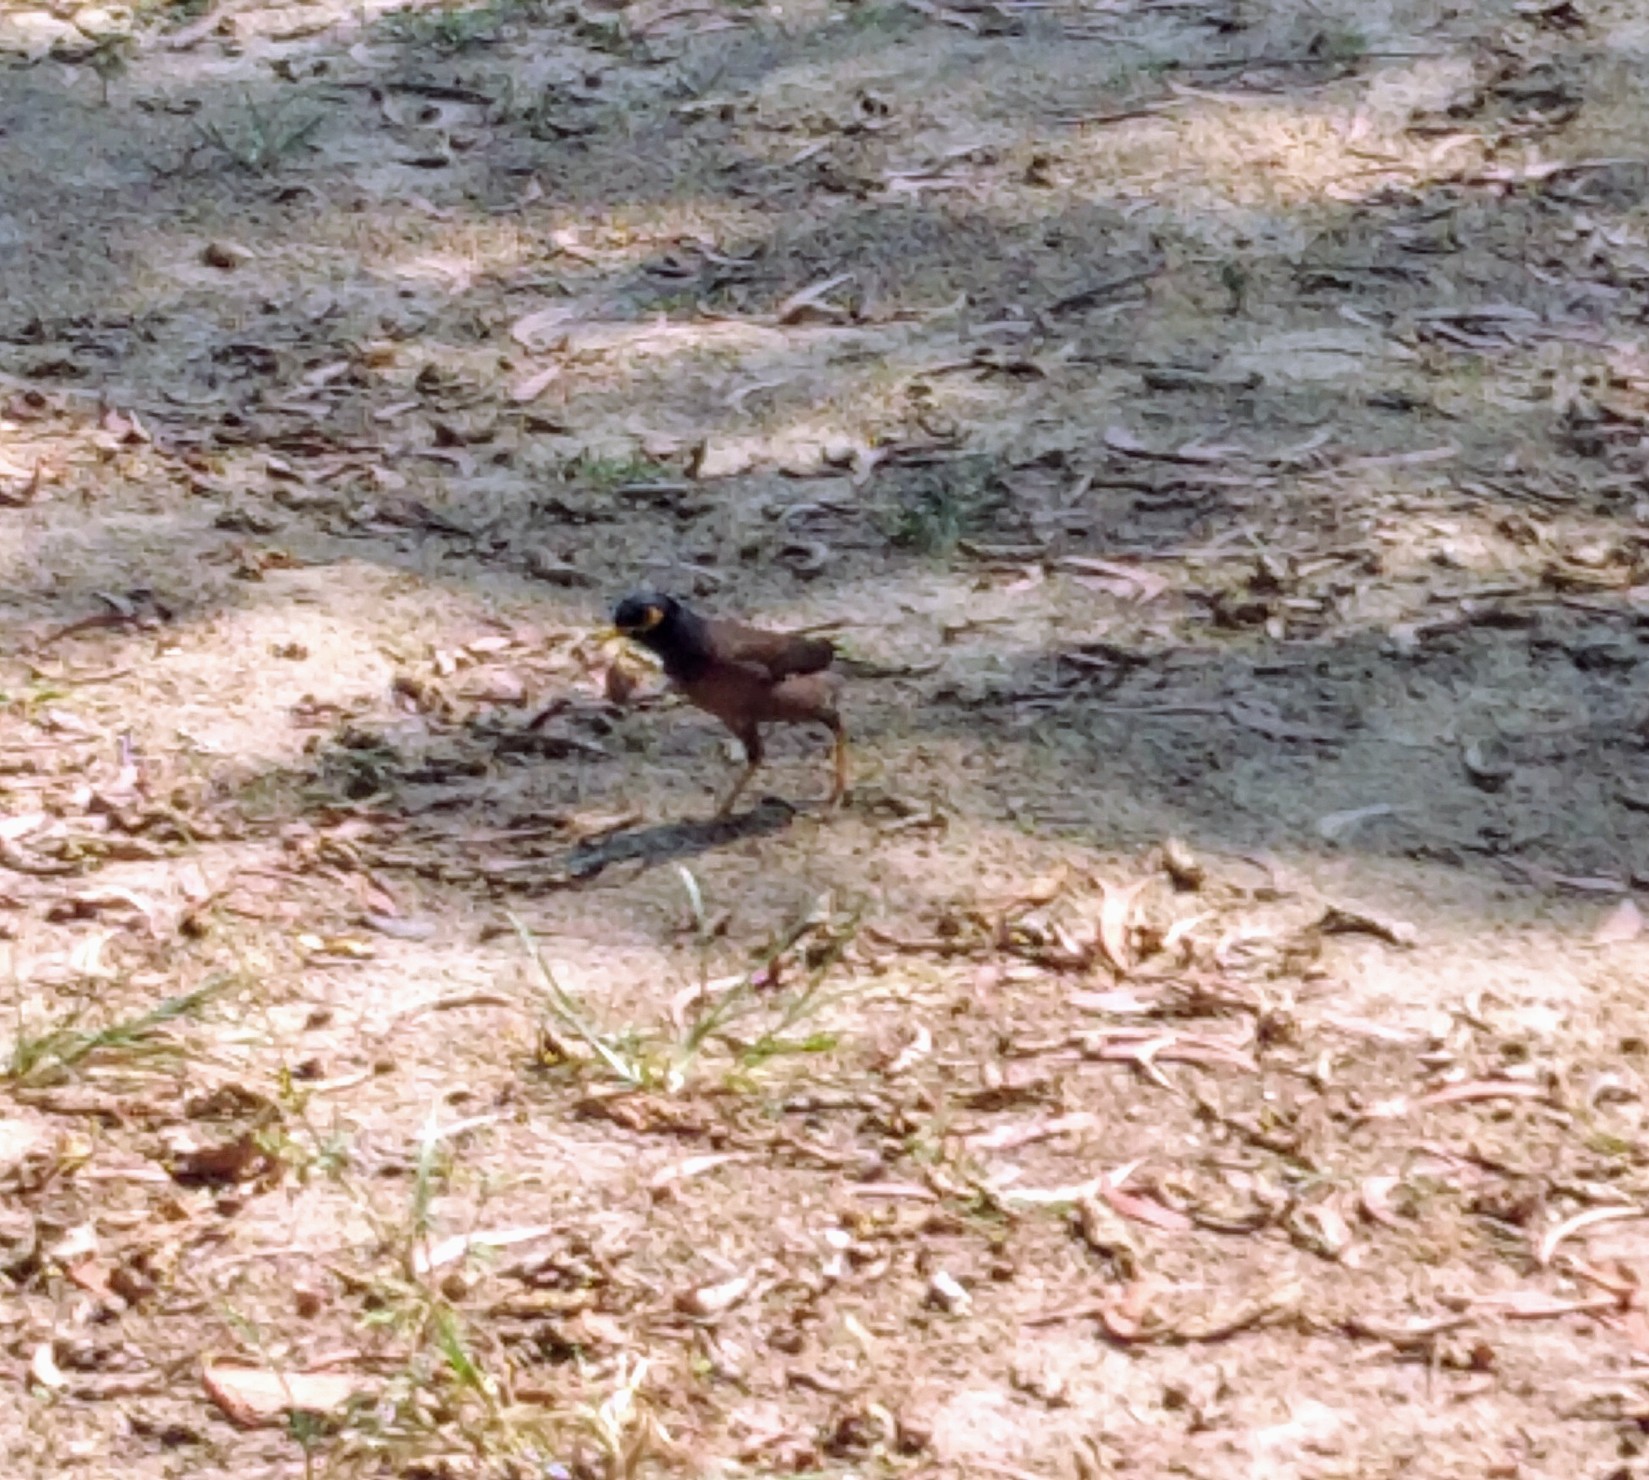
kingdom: Animalia
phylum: Chordata
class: Aves
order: Passeriformes
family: Sturnidae
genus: Acridotheres
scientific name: Acridotheres tristis
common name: Common myna
